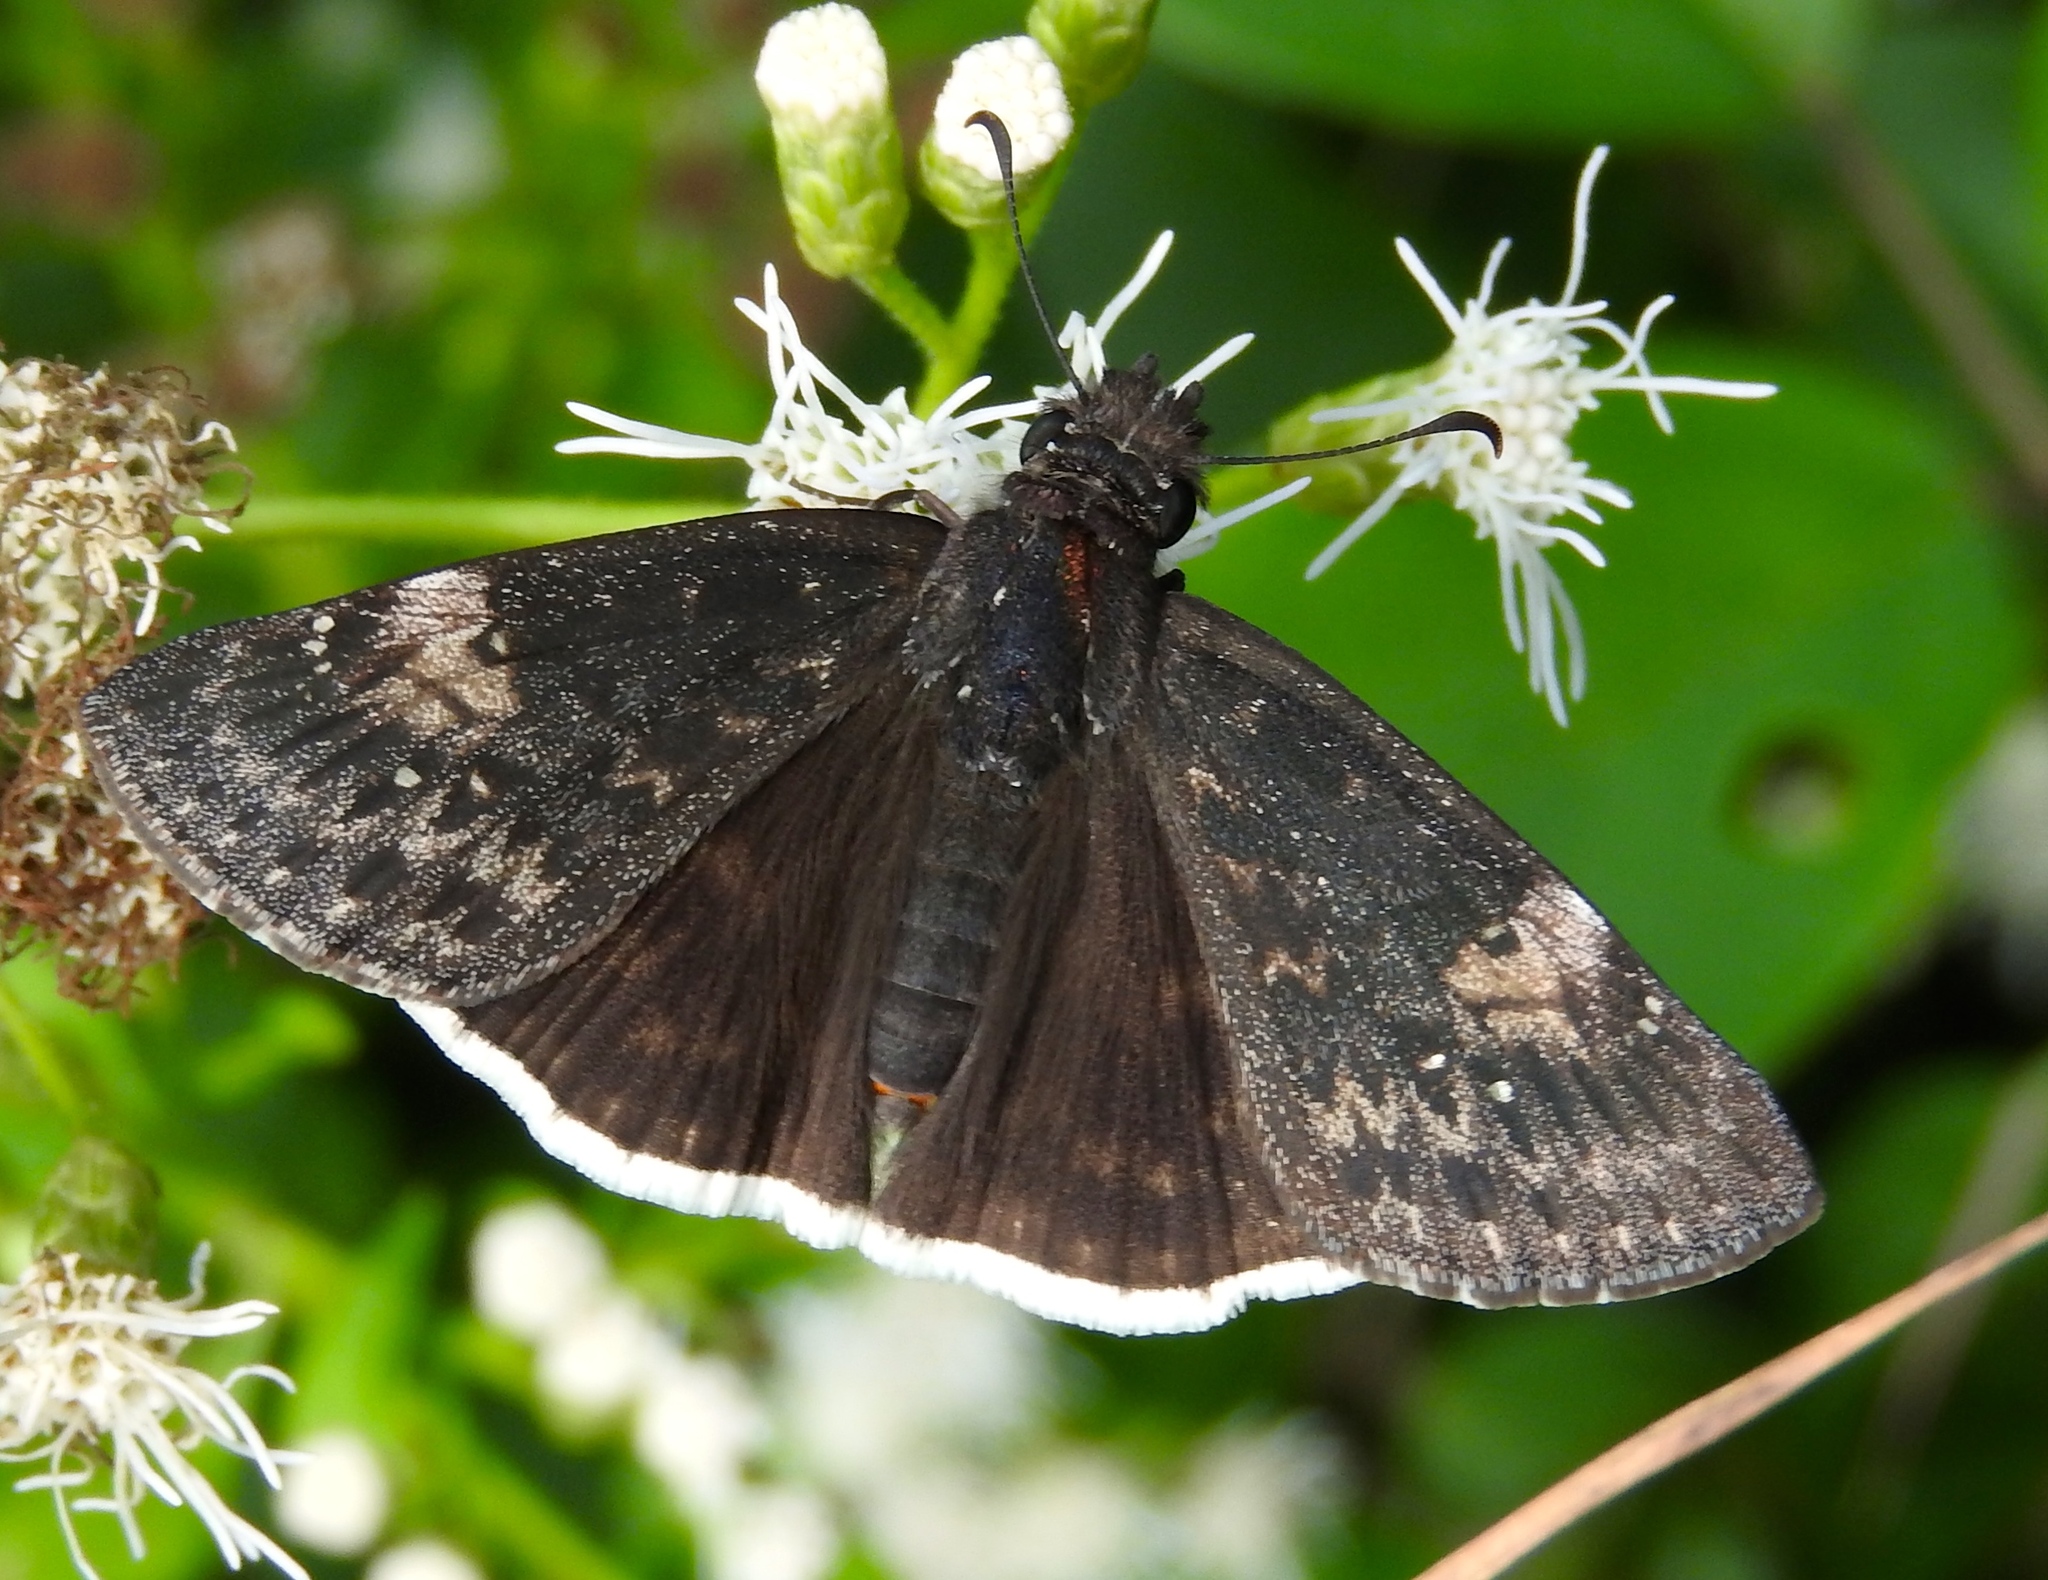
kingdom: Animalia
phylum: Arthropoda
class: Insecta
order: Lepidoptera
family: Hesperiidae
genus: Erynnis
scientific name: Erynnis funeralis
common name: Funereal duskywing
